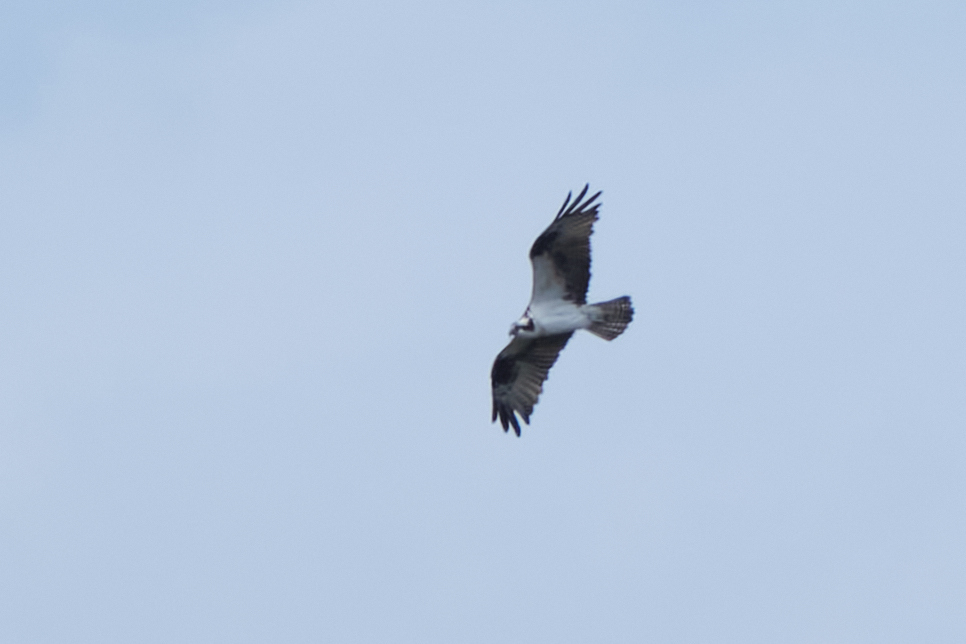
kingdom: Animalia
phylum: Chordata
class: Aves
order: Accipitriformes
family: Pandionidae
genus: Pandion
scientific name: Pandion haliaetus
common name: Osprey
